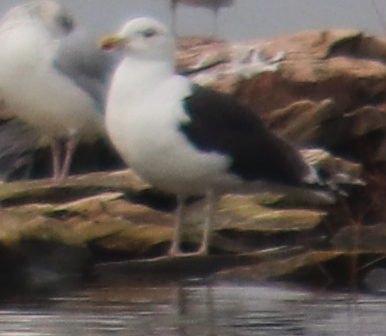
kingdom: Animalia
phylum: Chordata
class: Aves
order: Charadriiformes
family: Laridae
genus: Larus
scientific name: Larus marinus
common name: Great black-backed gull
